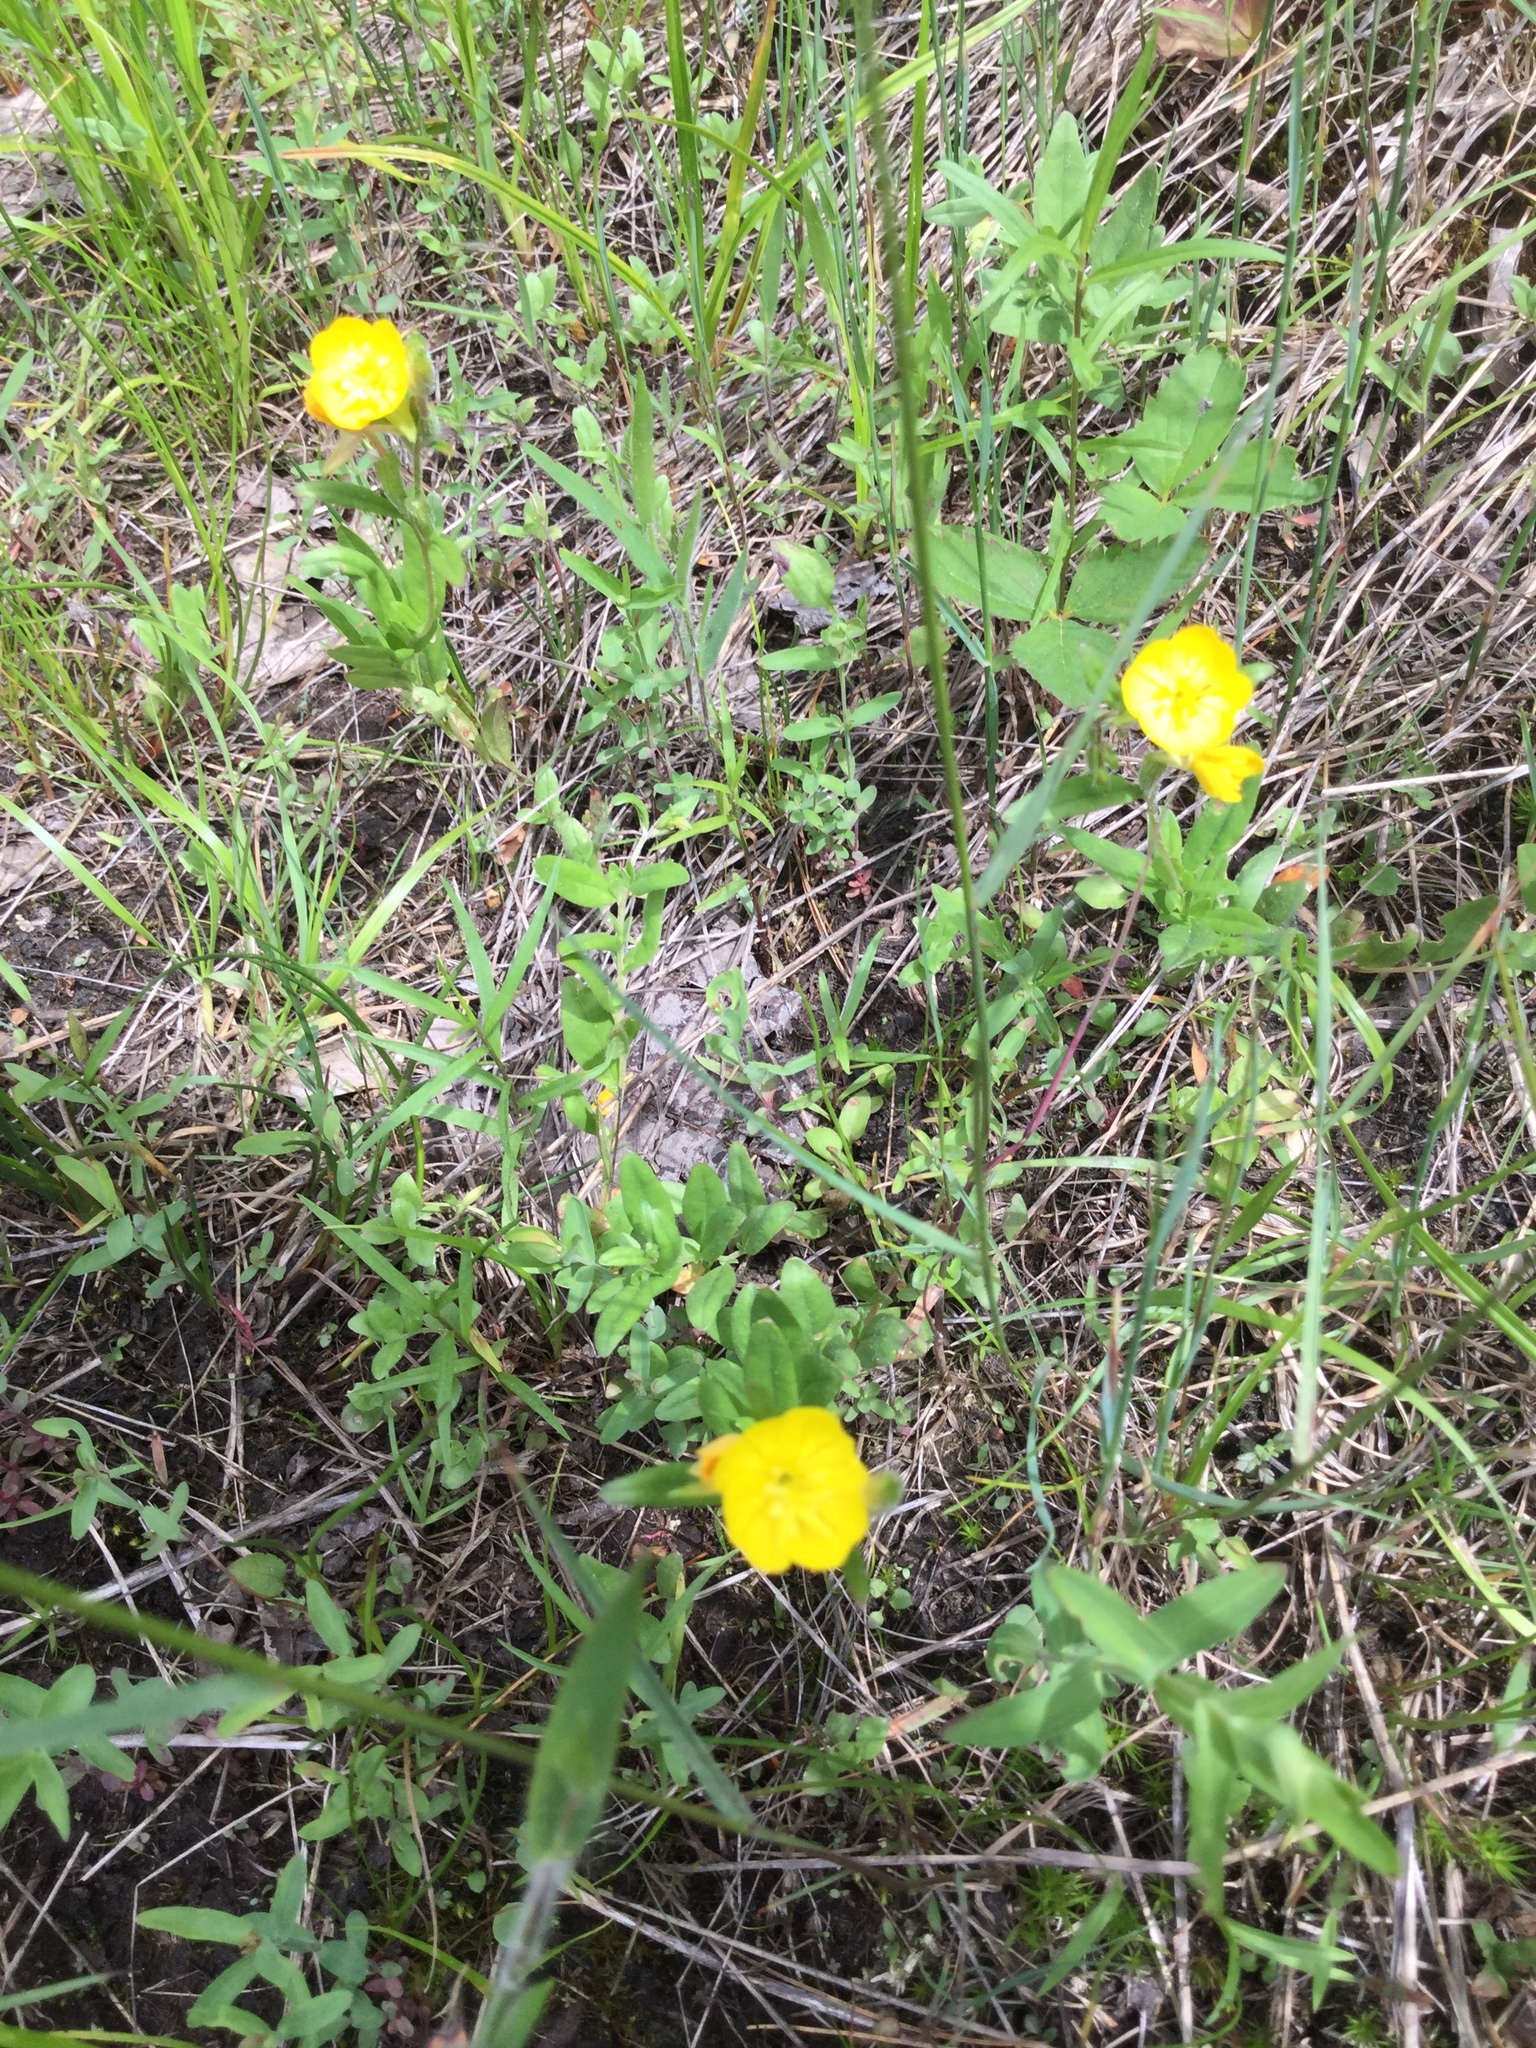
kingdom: Plantae
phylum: Tracheophyta
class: Magnoliopsida
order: Myrtales
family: Onagraceae
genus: Oenothera
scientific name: Oenothera perennis
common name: Small sundrops
